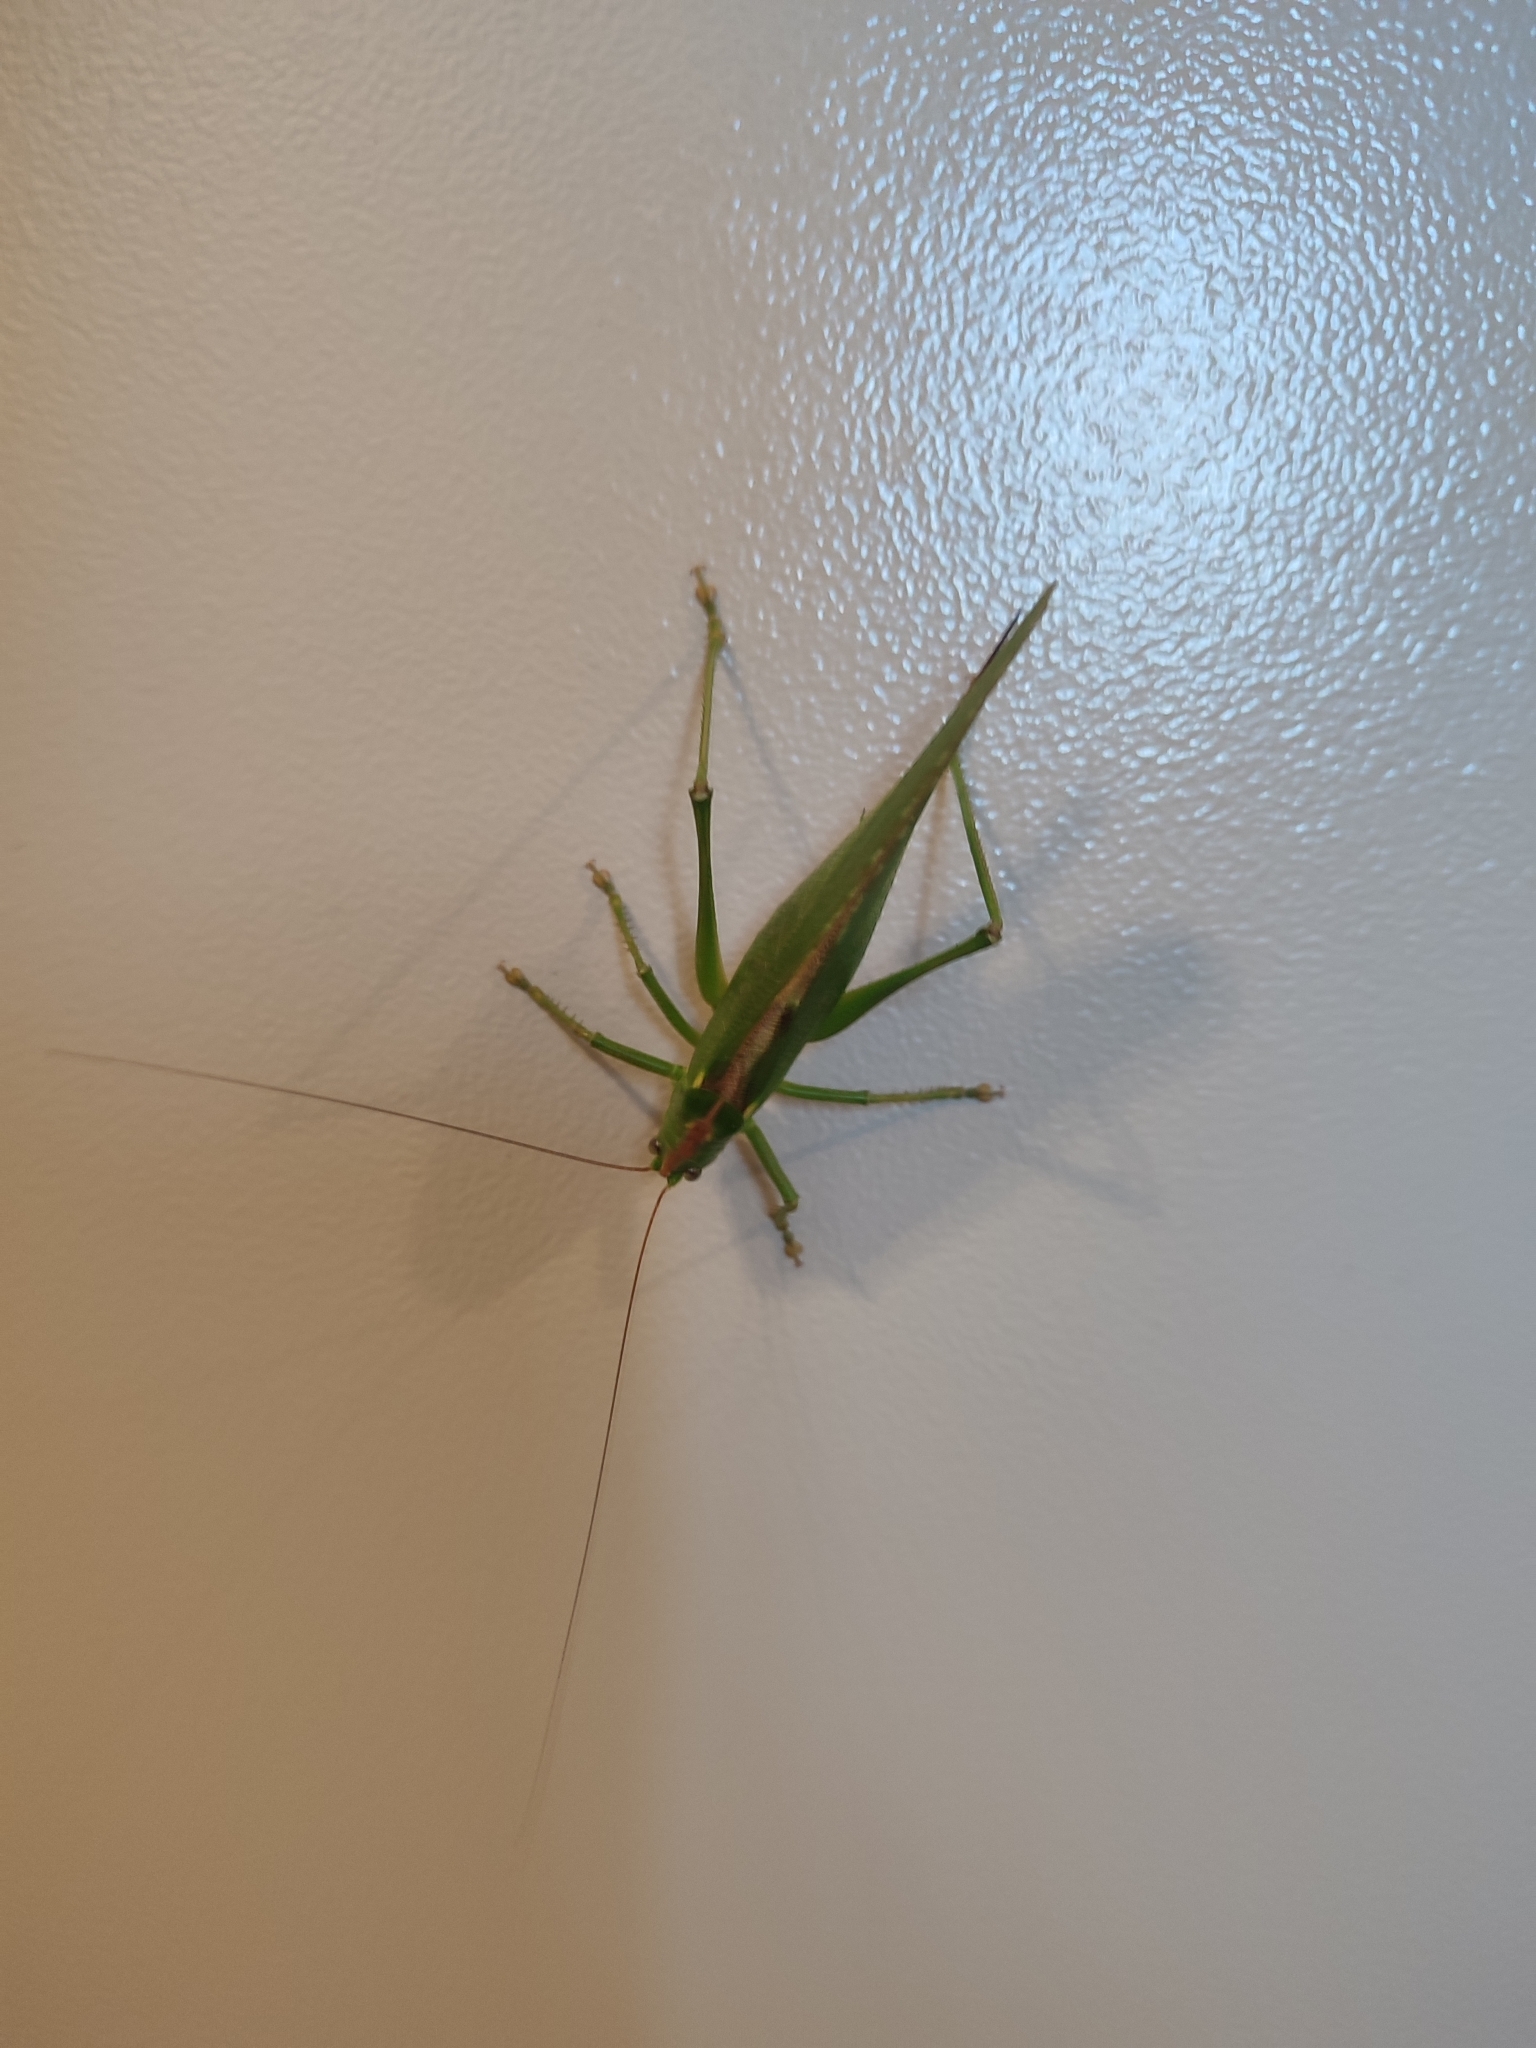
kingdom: Animalia
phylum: Arthropoda
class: Insecta
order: Orthoptera
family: Tettigoniidae
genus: Tettigonia
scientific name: Tettigonia viridissima
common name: Great green bush-cricket
